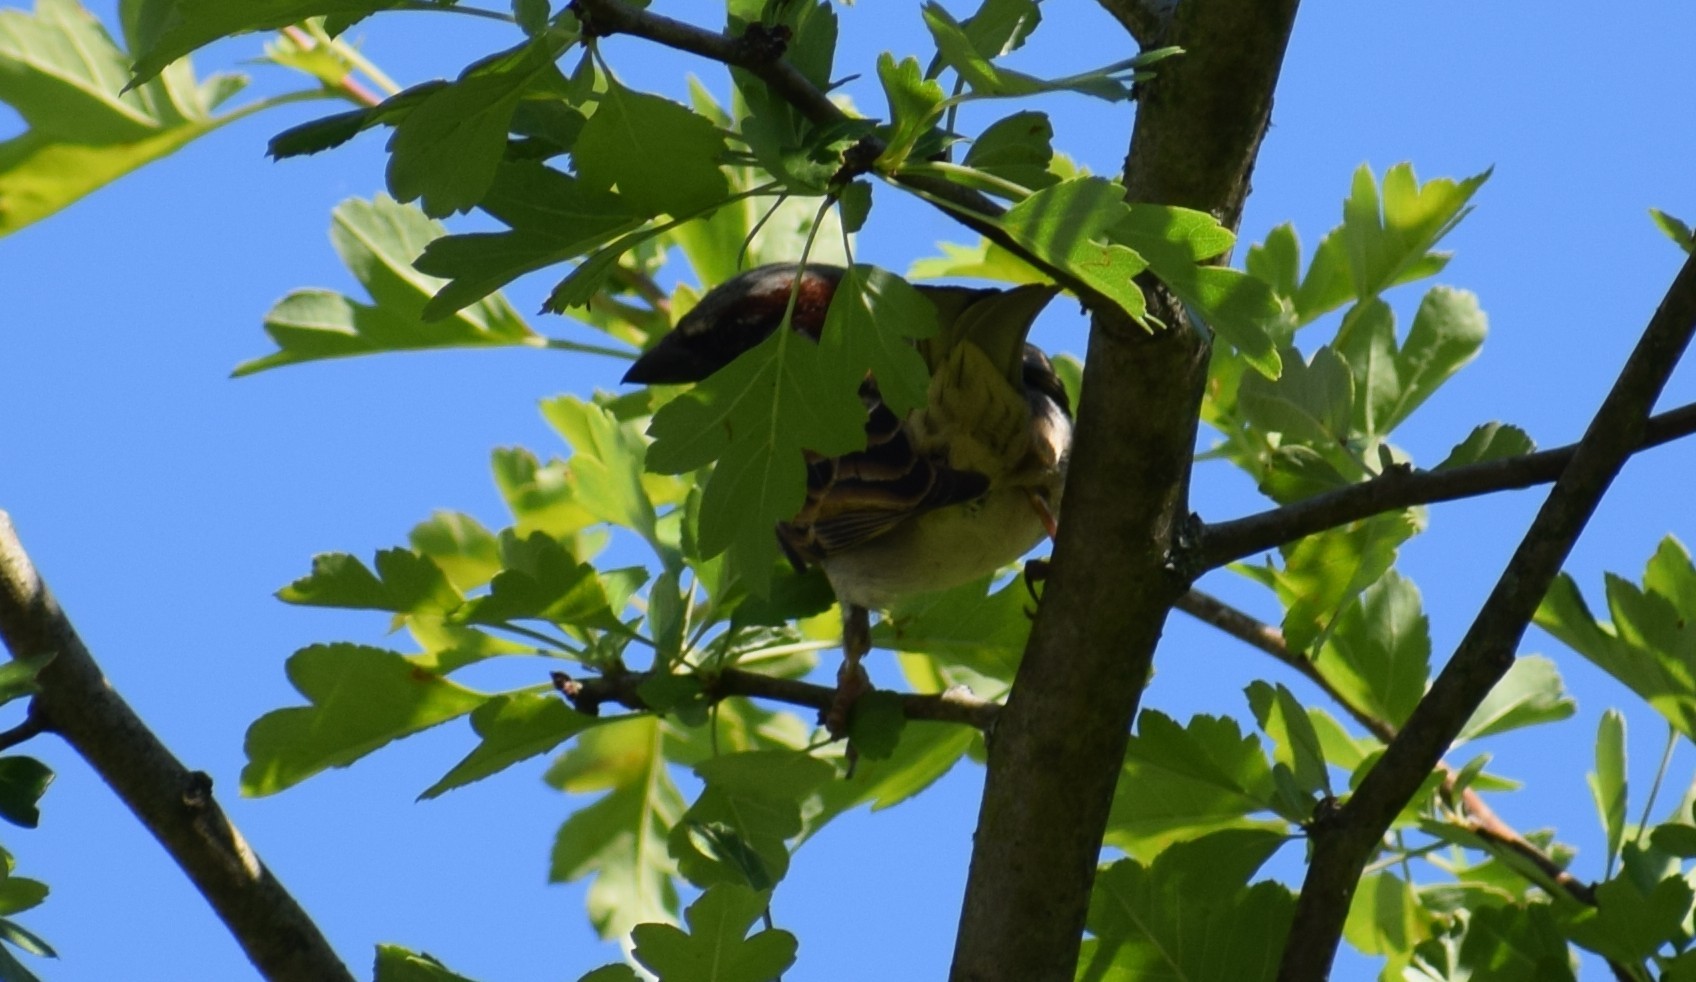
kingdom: Animalia
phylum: Chordata
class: Aves
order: Passeriformes
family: Passeridae
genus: Passer
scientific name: Passer domesticus
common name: House sparrow
